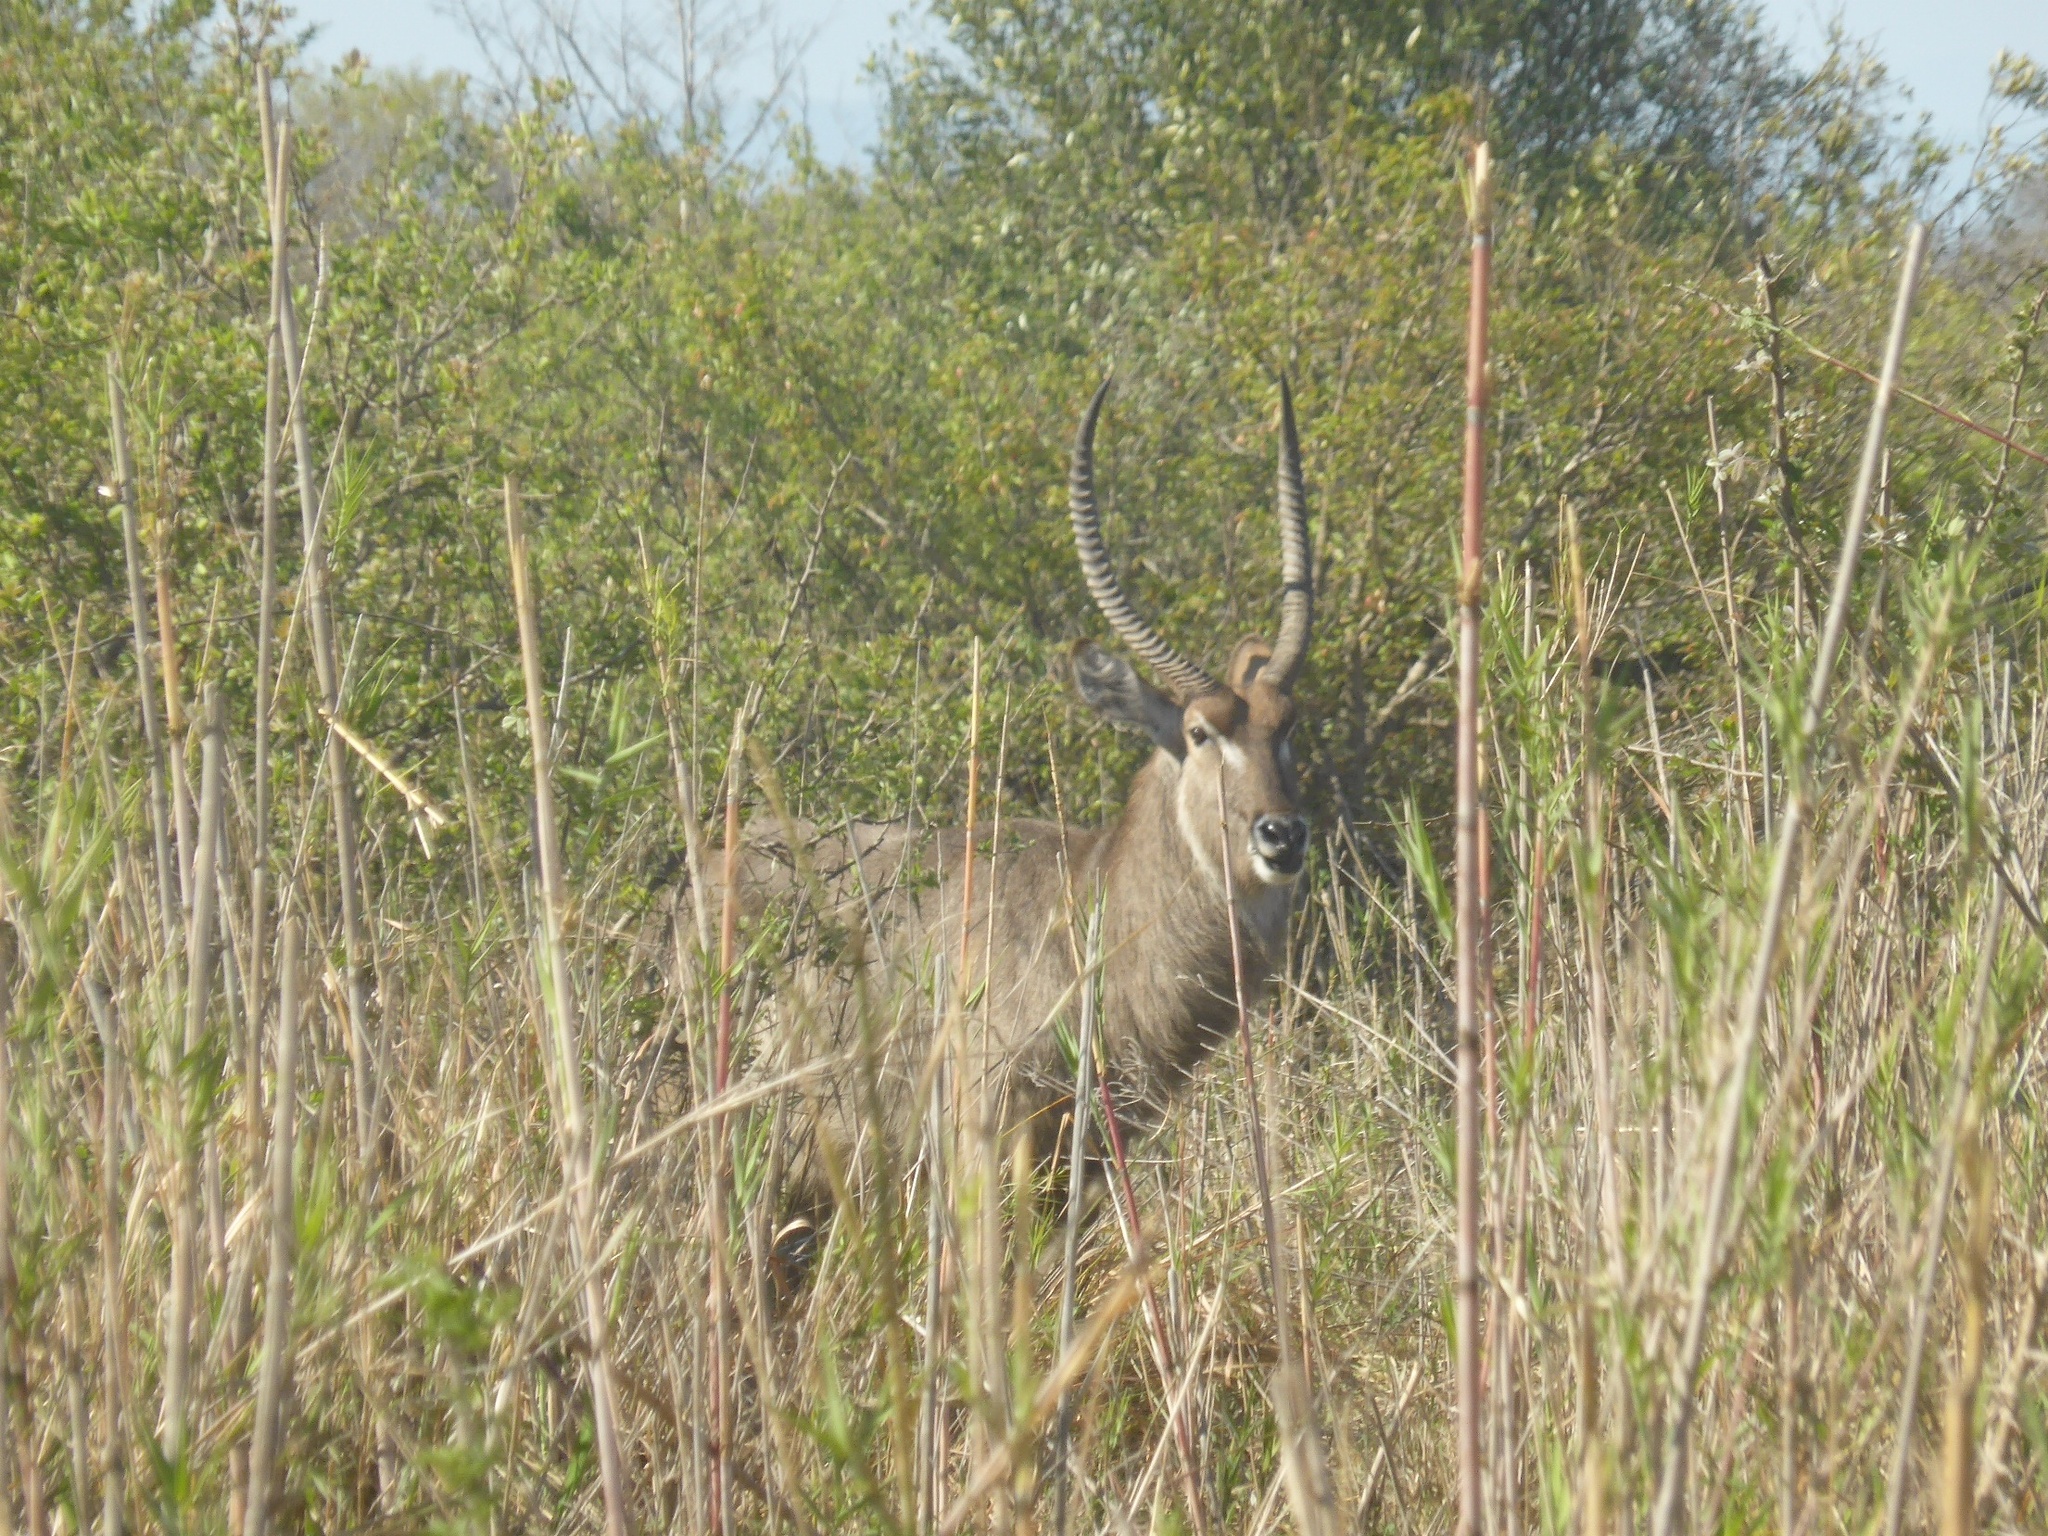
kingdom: Animalia
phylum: Chordata
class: Mammalia
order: Artiodactyla
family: Bovidae
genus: Kobus
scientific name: Kobus ellipsiprymnus
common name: Waterbuck
